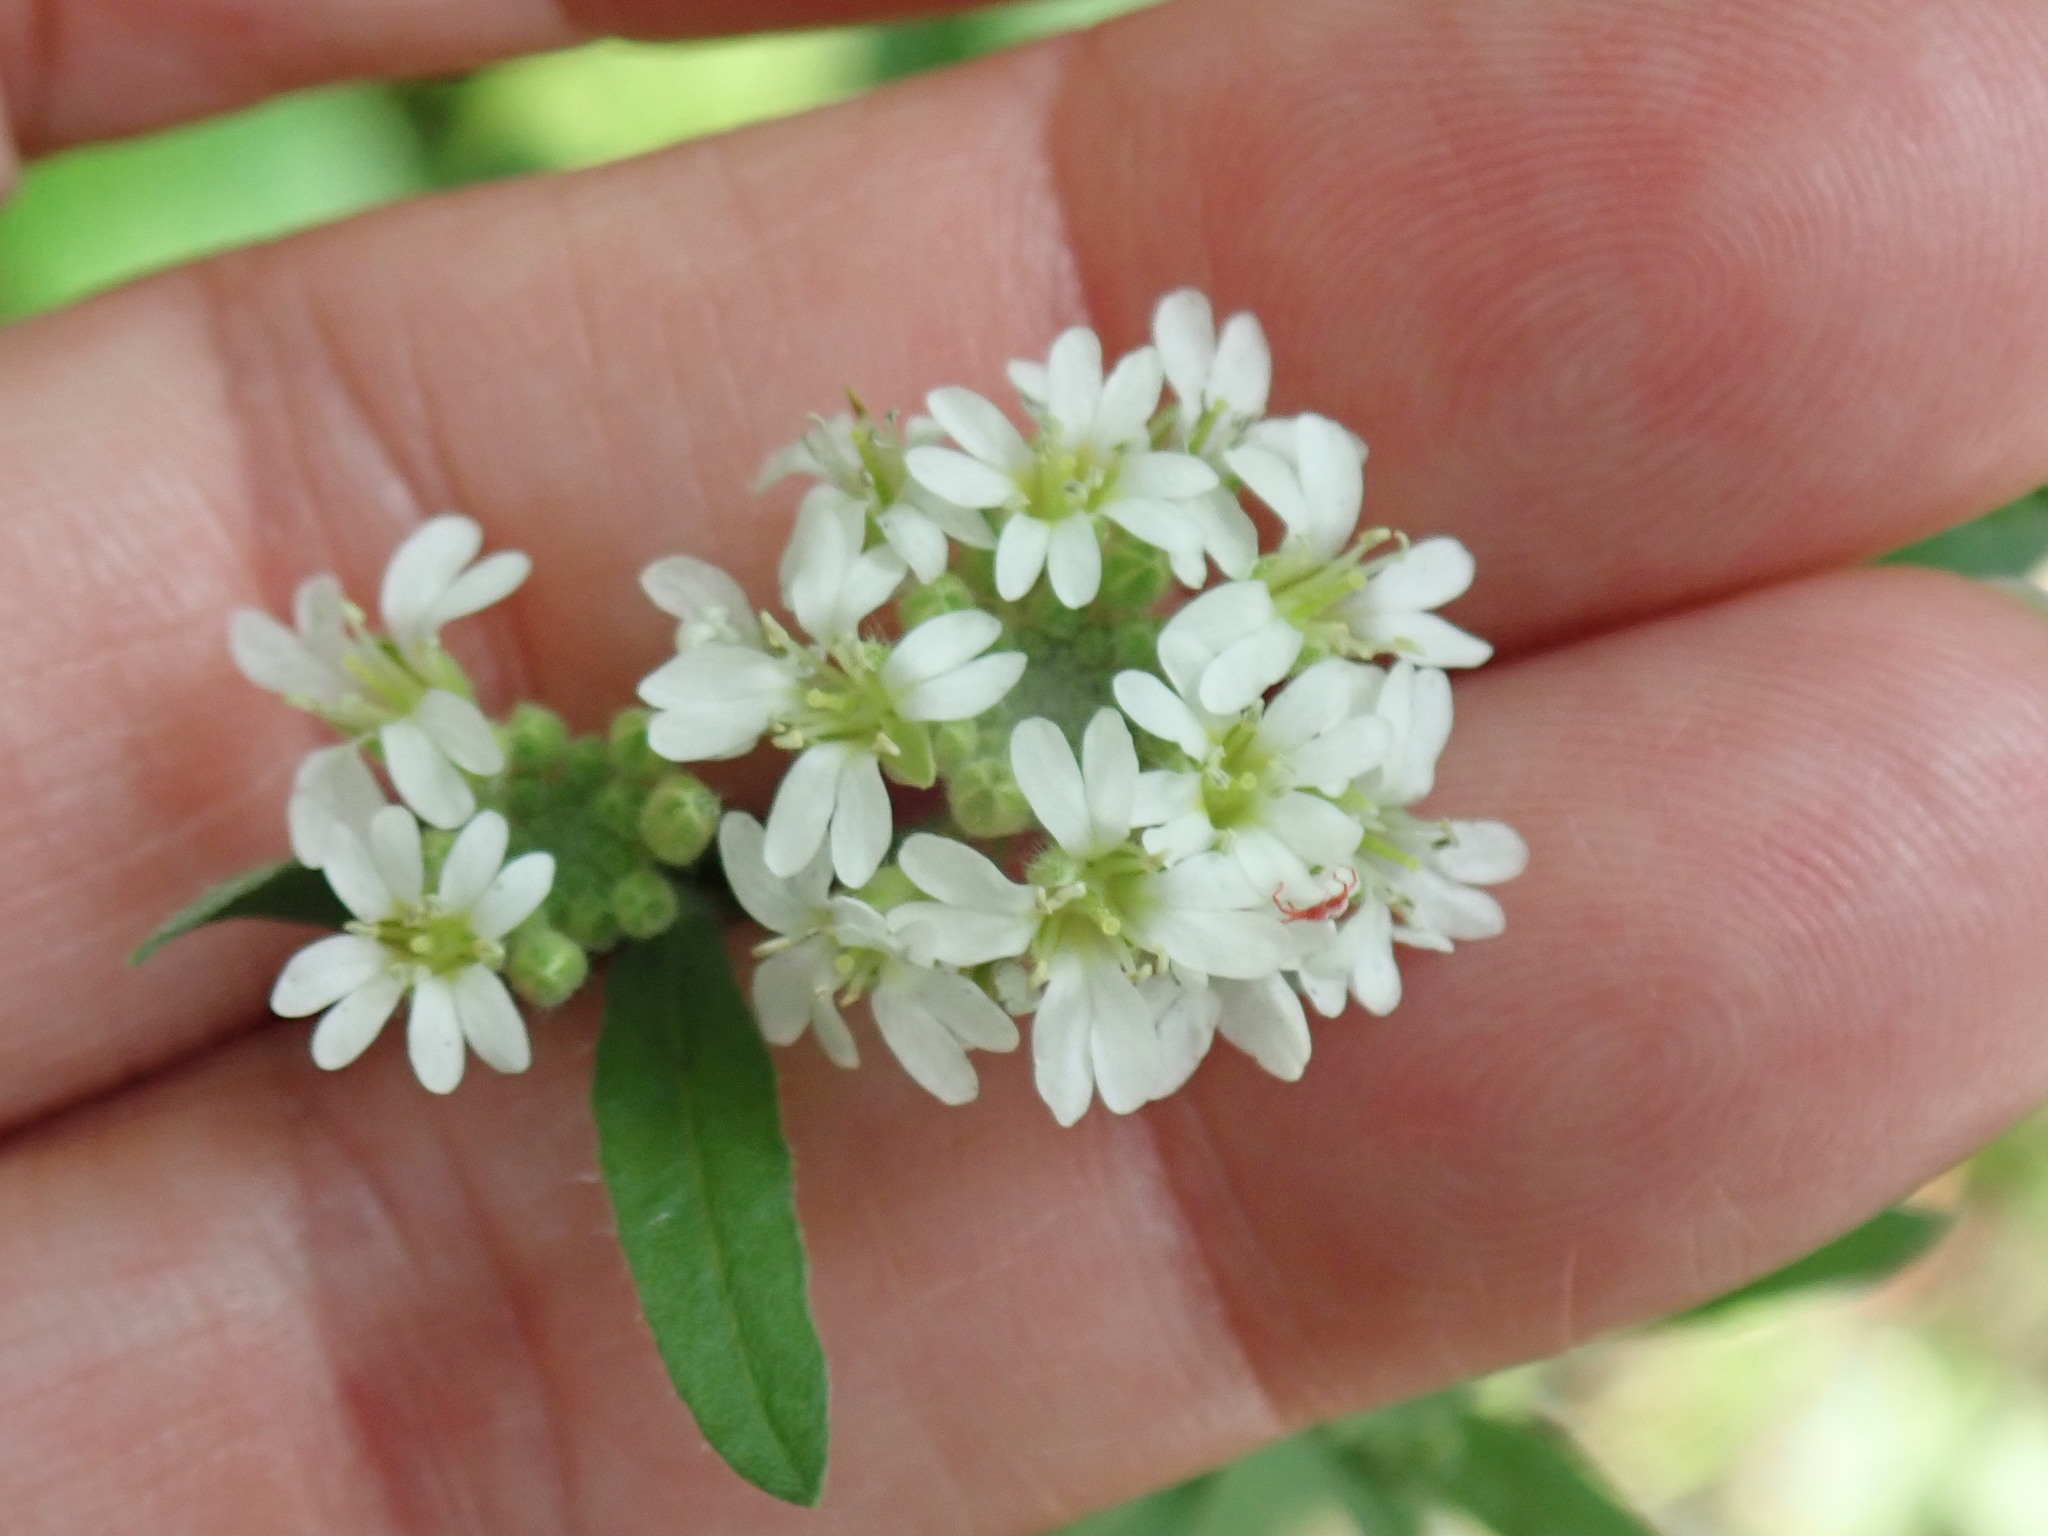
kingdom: Plantae
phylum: Tracheophyta
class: Magnoliopsida
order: Brassicales
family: Brassicaceae
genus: Berteroa
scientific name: Berteroa incana
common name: Hoary alison
